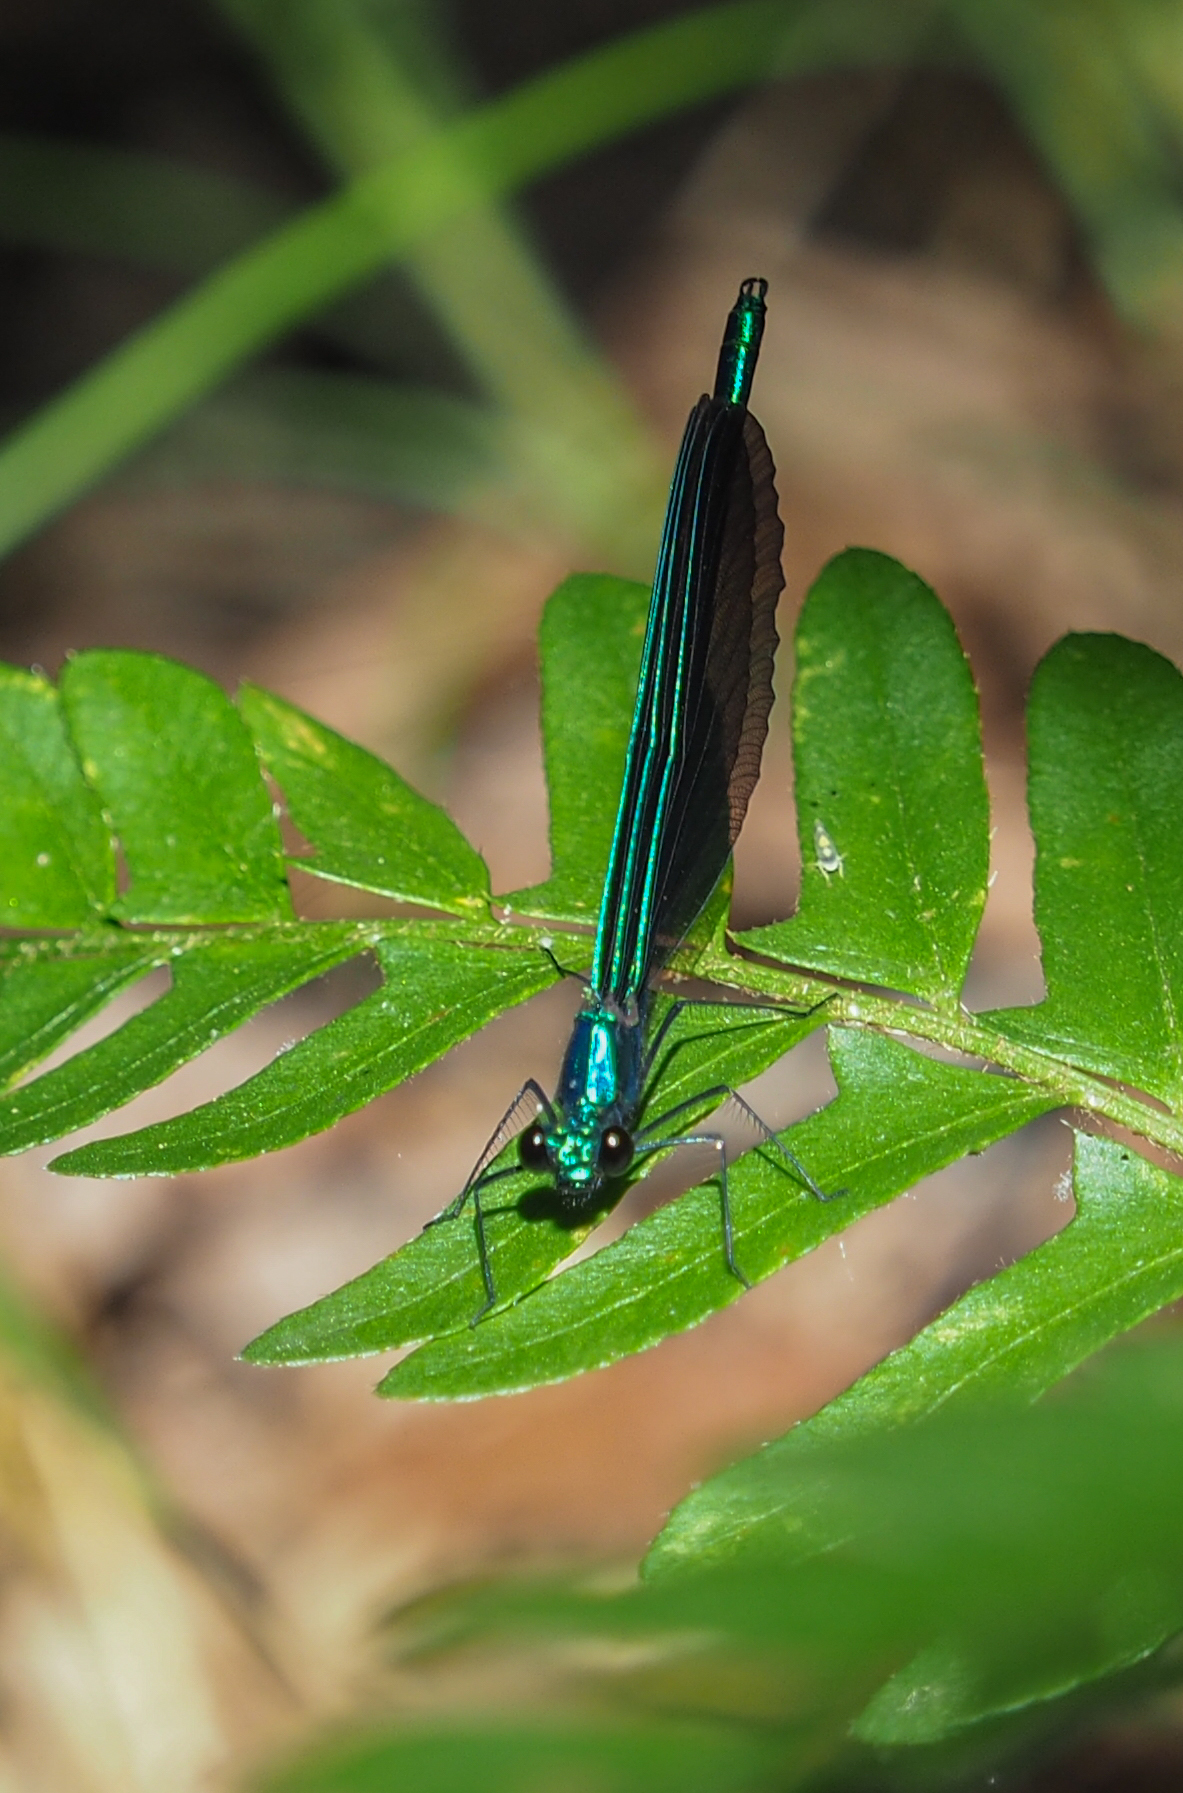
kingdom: Animalia
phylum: Arthropoda
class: Insecta
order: Odonata
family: Calopterygidae
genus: Calopteryx
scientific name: Calopteryx maculata
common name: Ebony jewelwing
